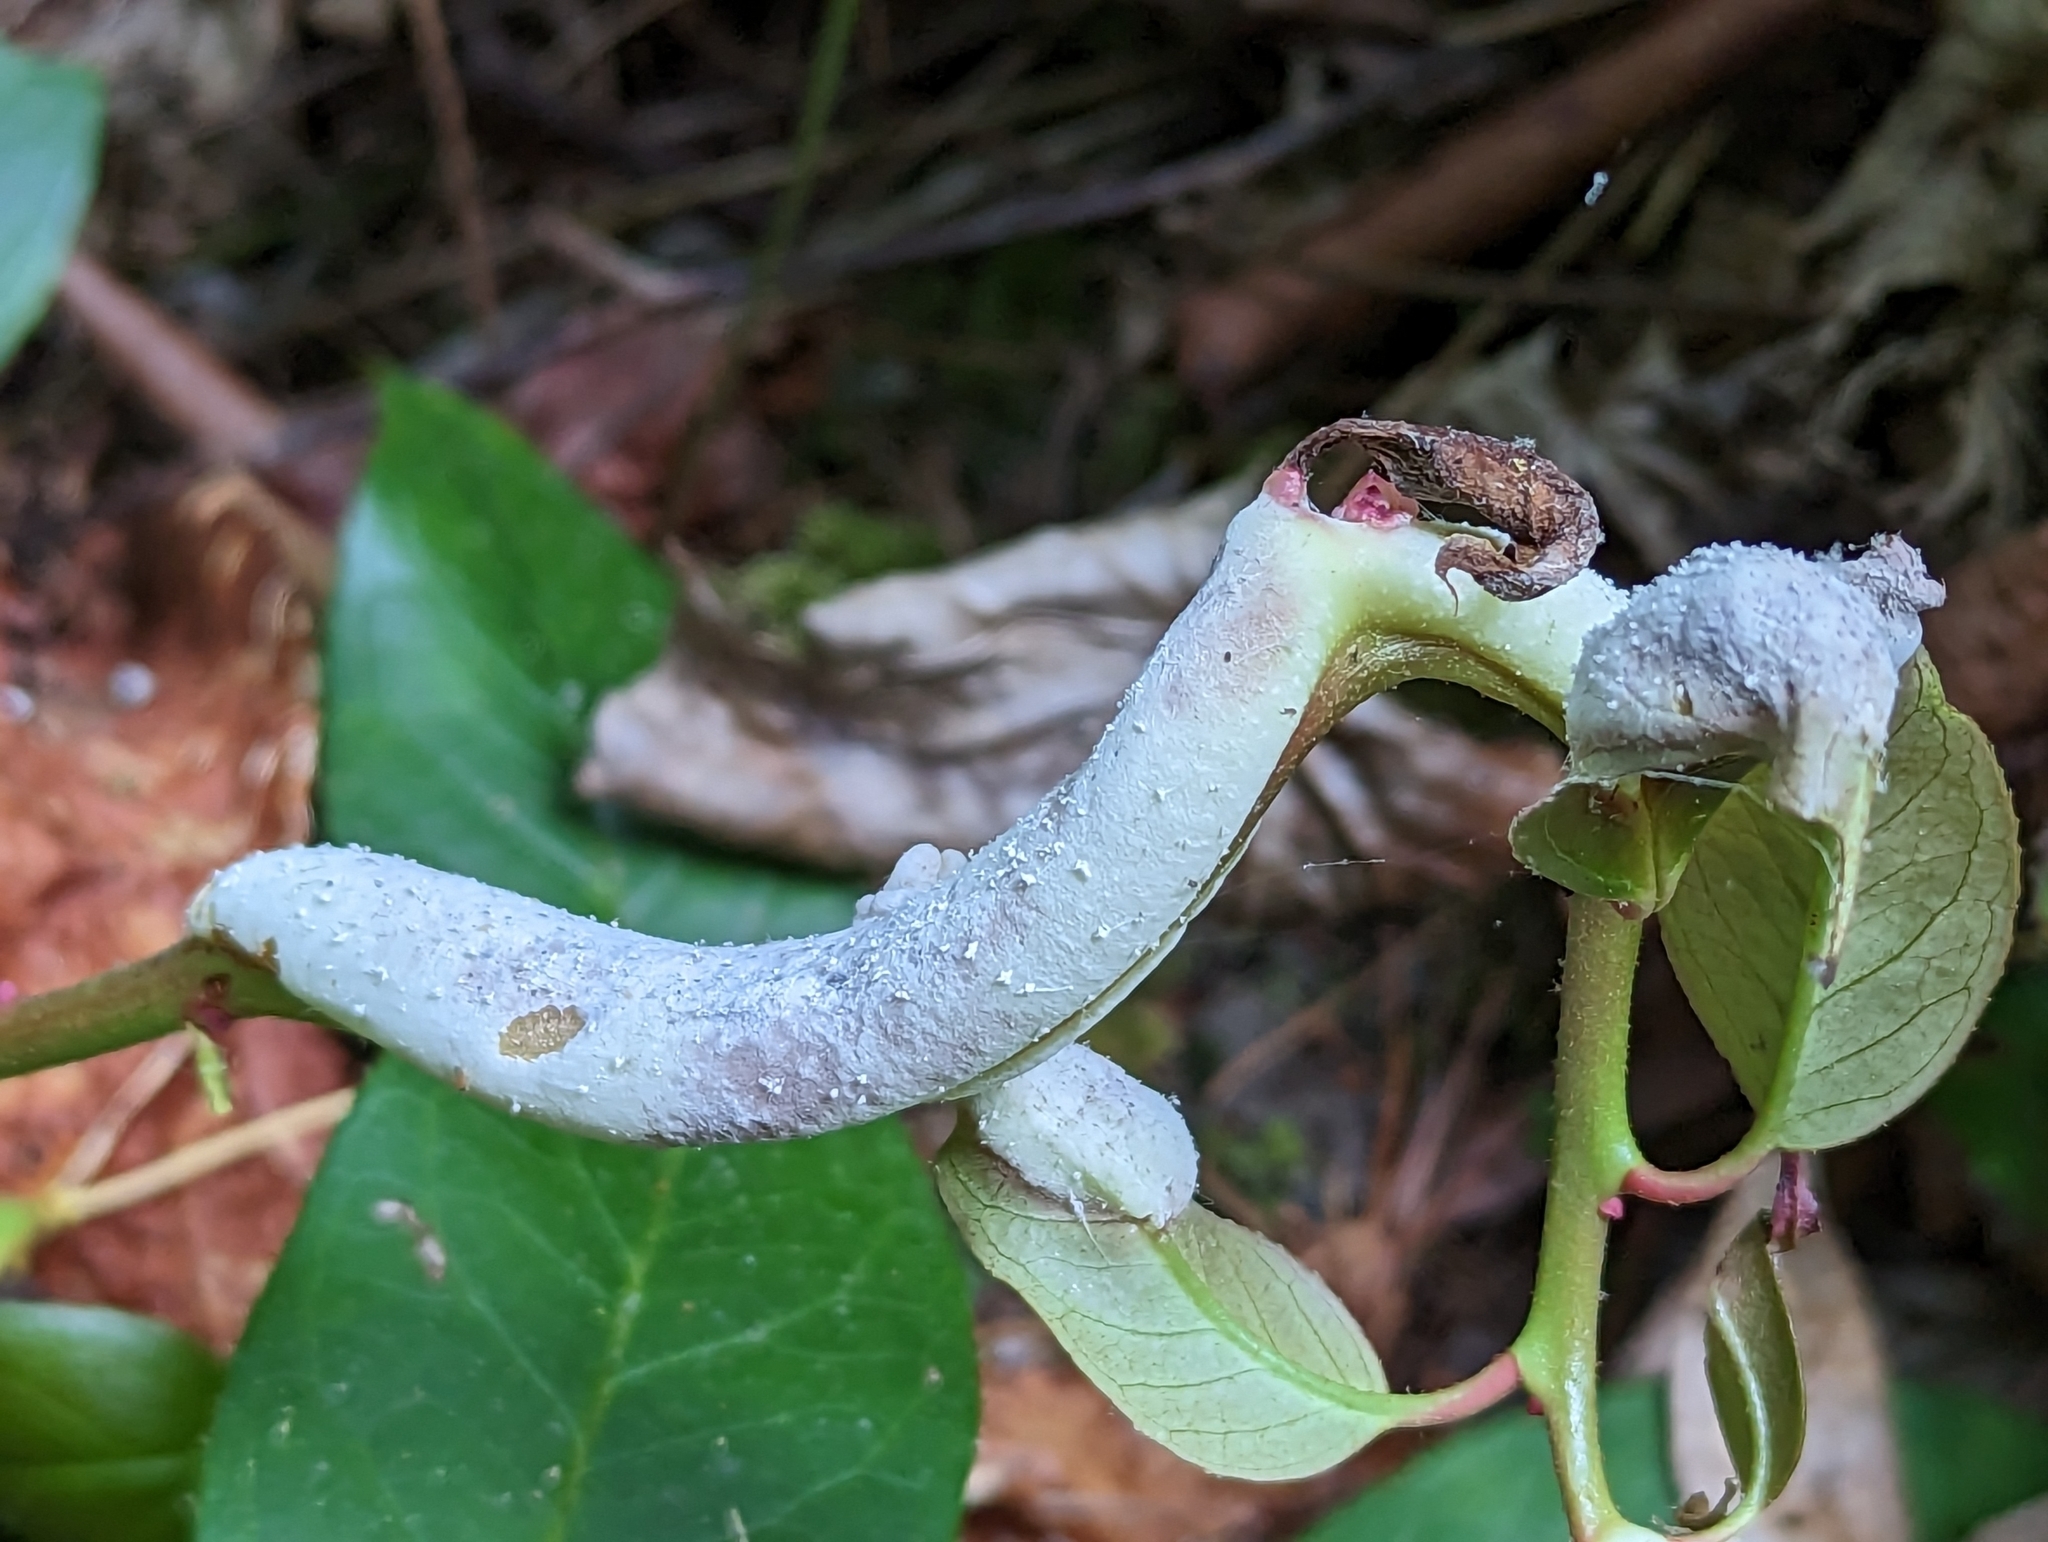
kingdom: Fungi
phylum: Basidiomycota
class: Exobasidiomycetes
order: Exobasidiales
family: Exobasidiaceae
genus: Exobasidium
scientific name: Exobasidium vaccinii
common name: Cowberry redleaf
